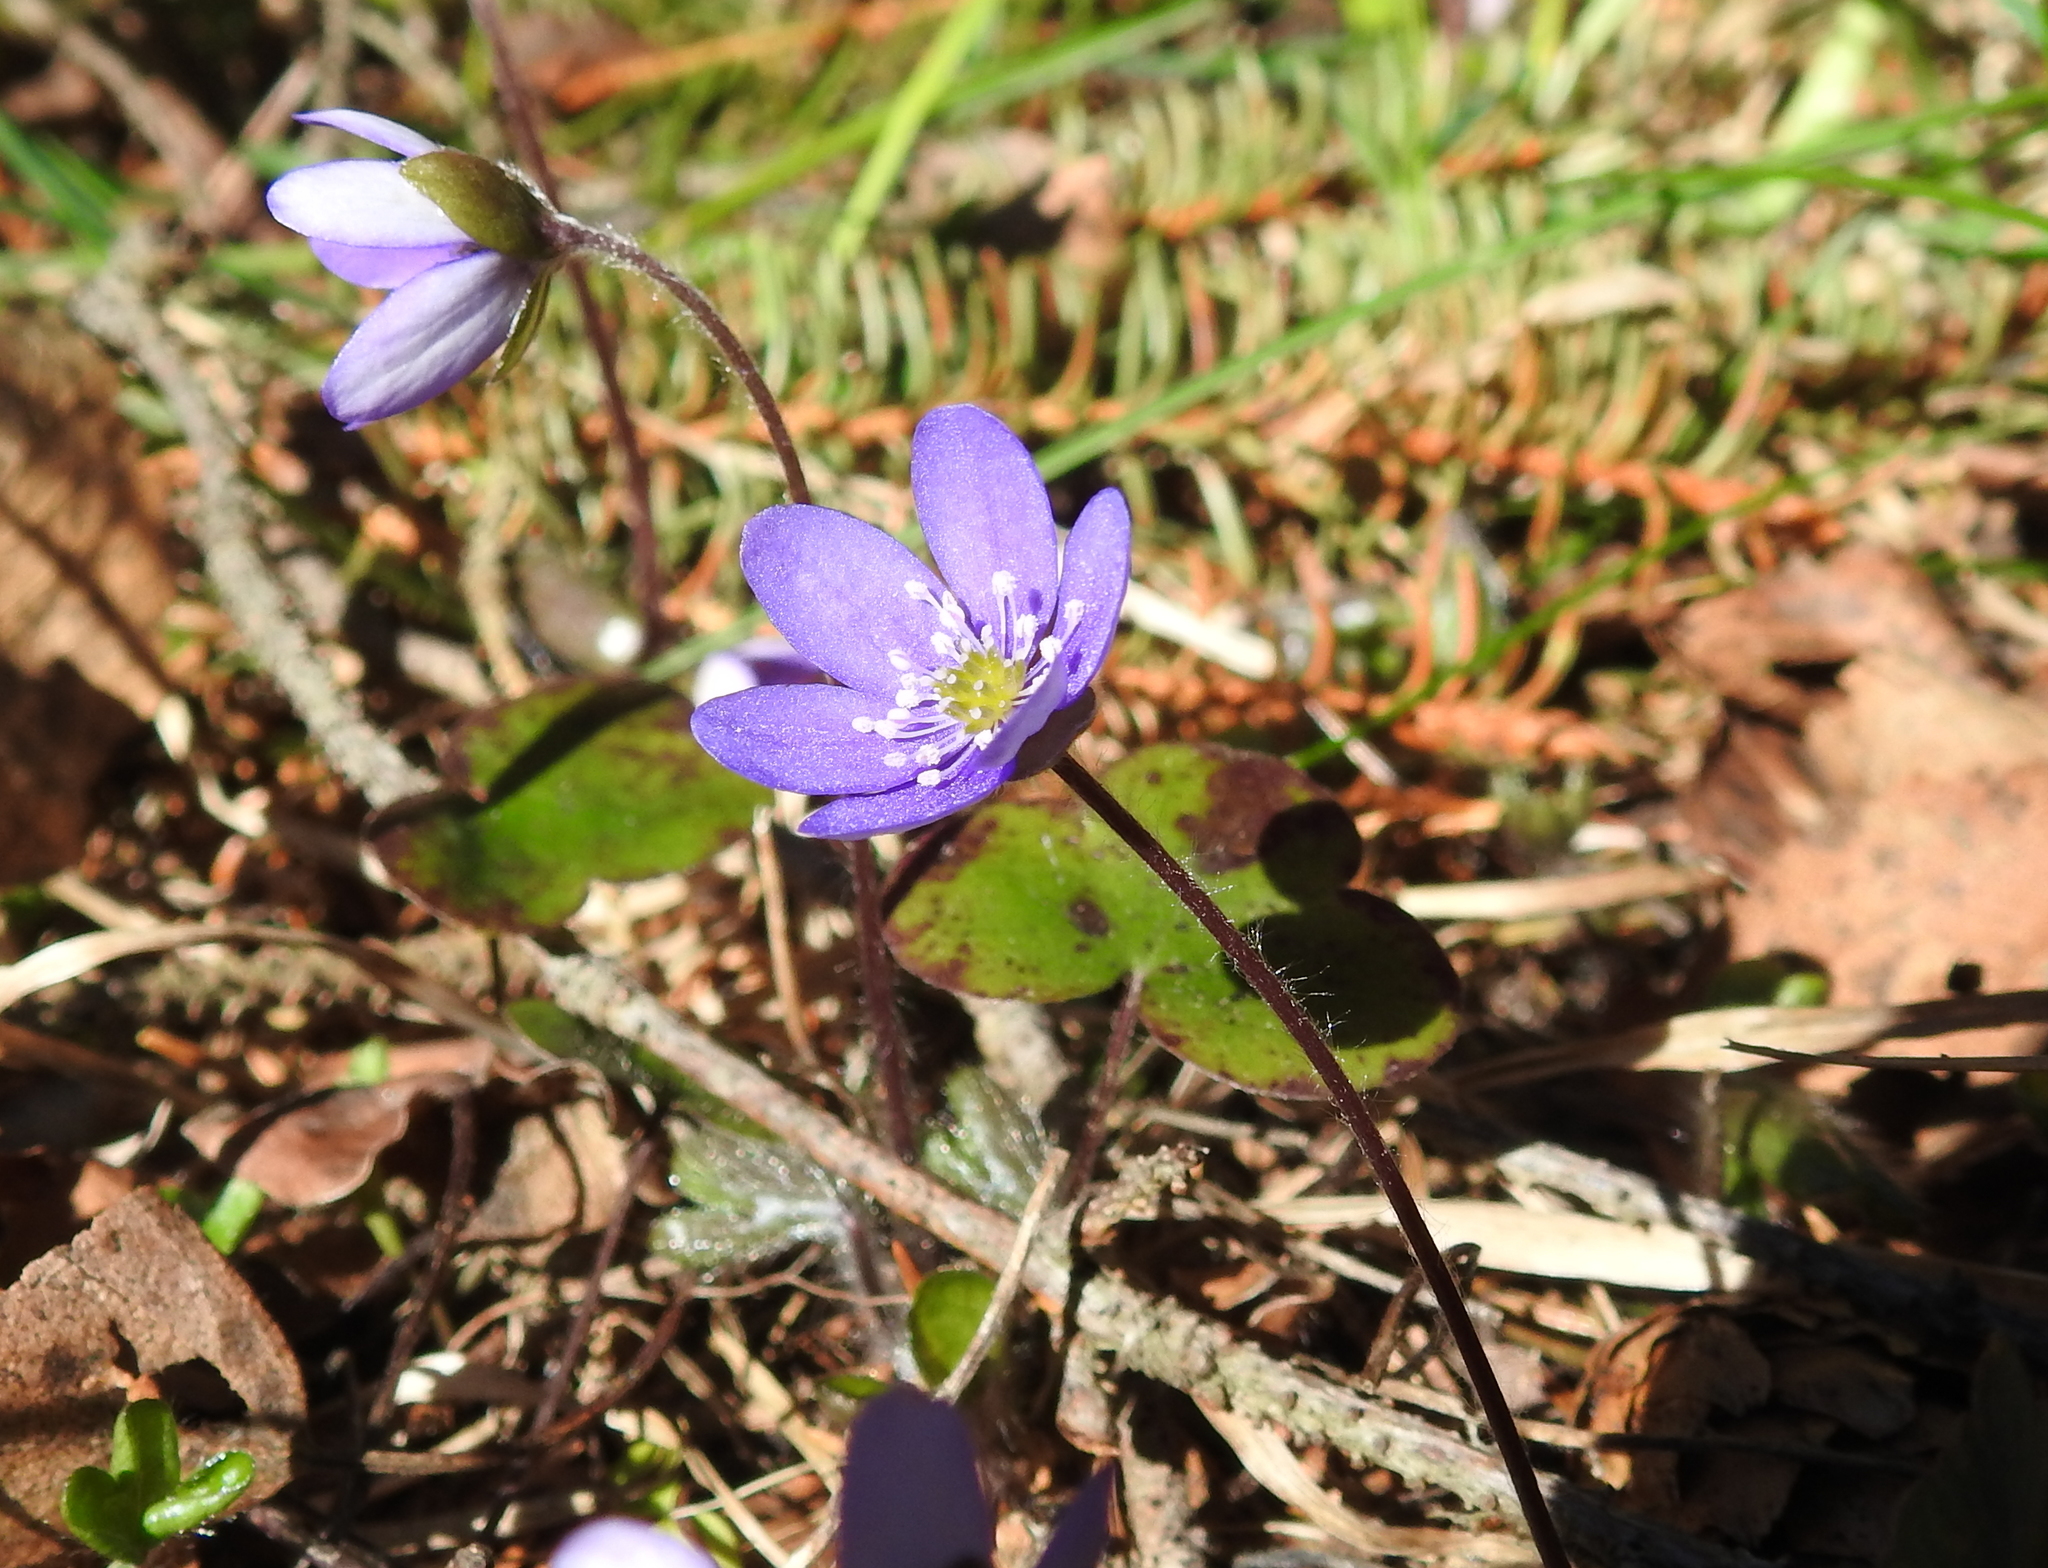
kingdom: Plantae
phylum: Tracheophyta
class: Magnoliopsida
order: Ranunculales
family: Ranunculaceae
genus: Hepatica
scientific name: Hepatica nobilis
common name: Liverleaf
